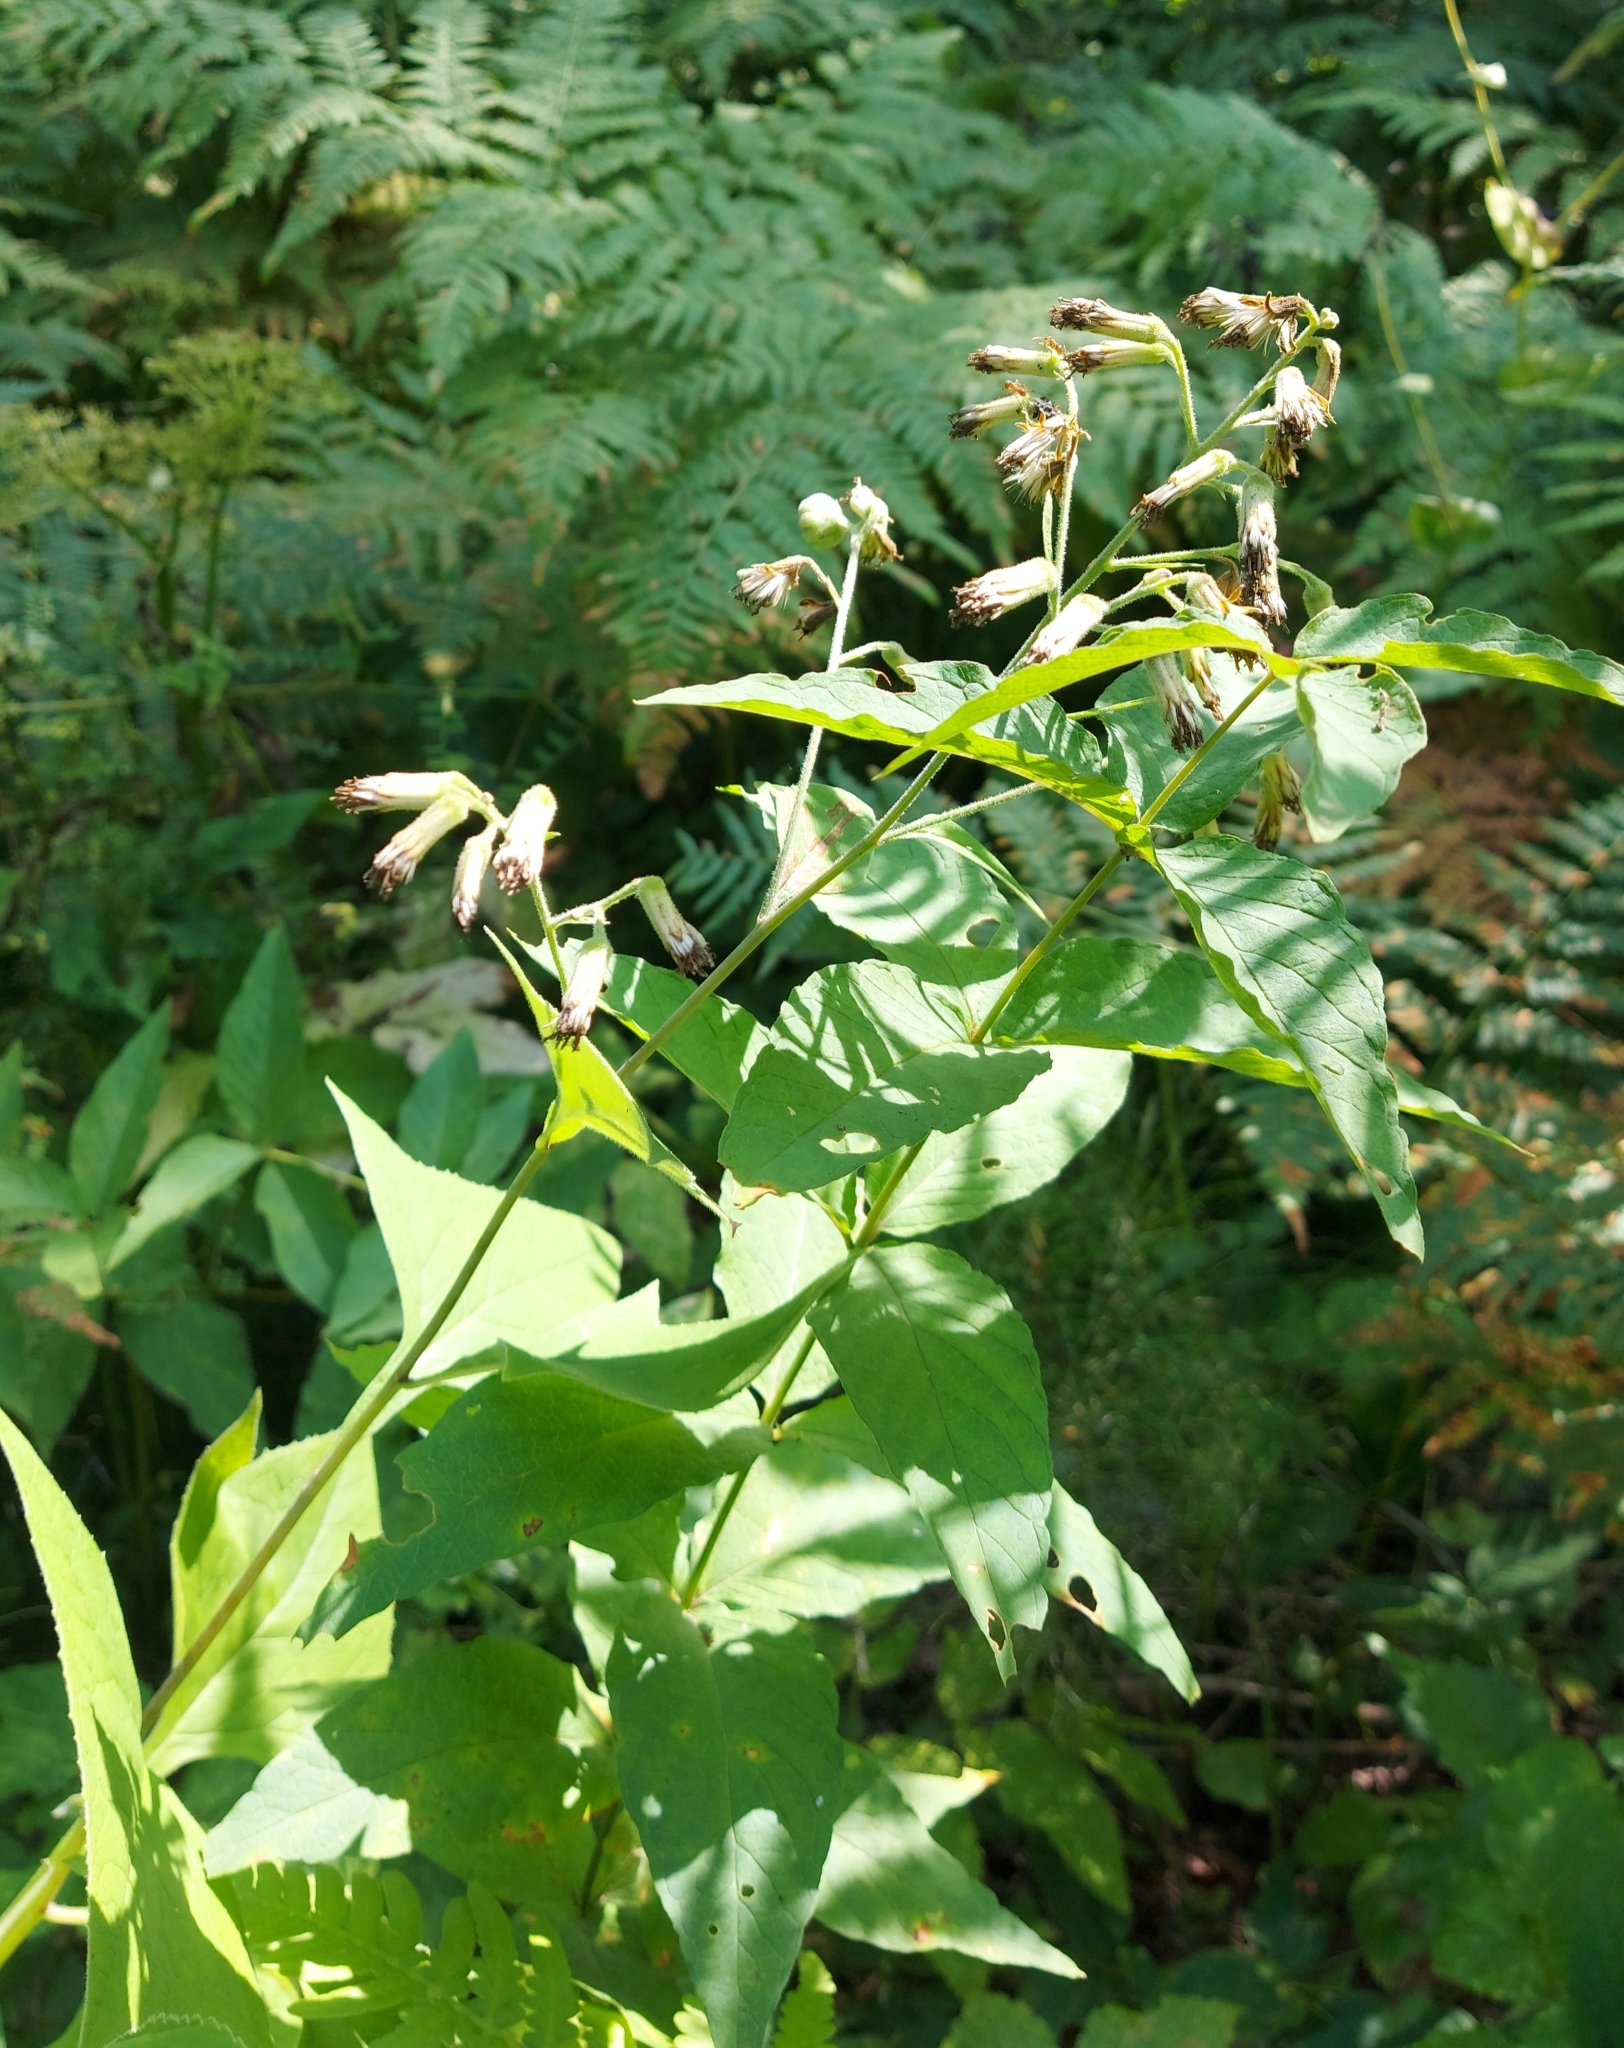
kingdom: Plantae
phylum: Tracheophyta
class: Magnoliopsida
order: Asterales
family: Asteraceae
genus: Parasenecio
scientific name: Parasenecio hastatus
